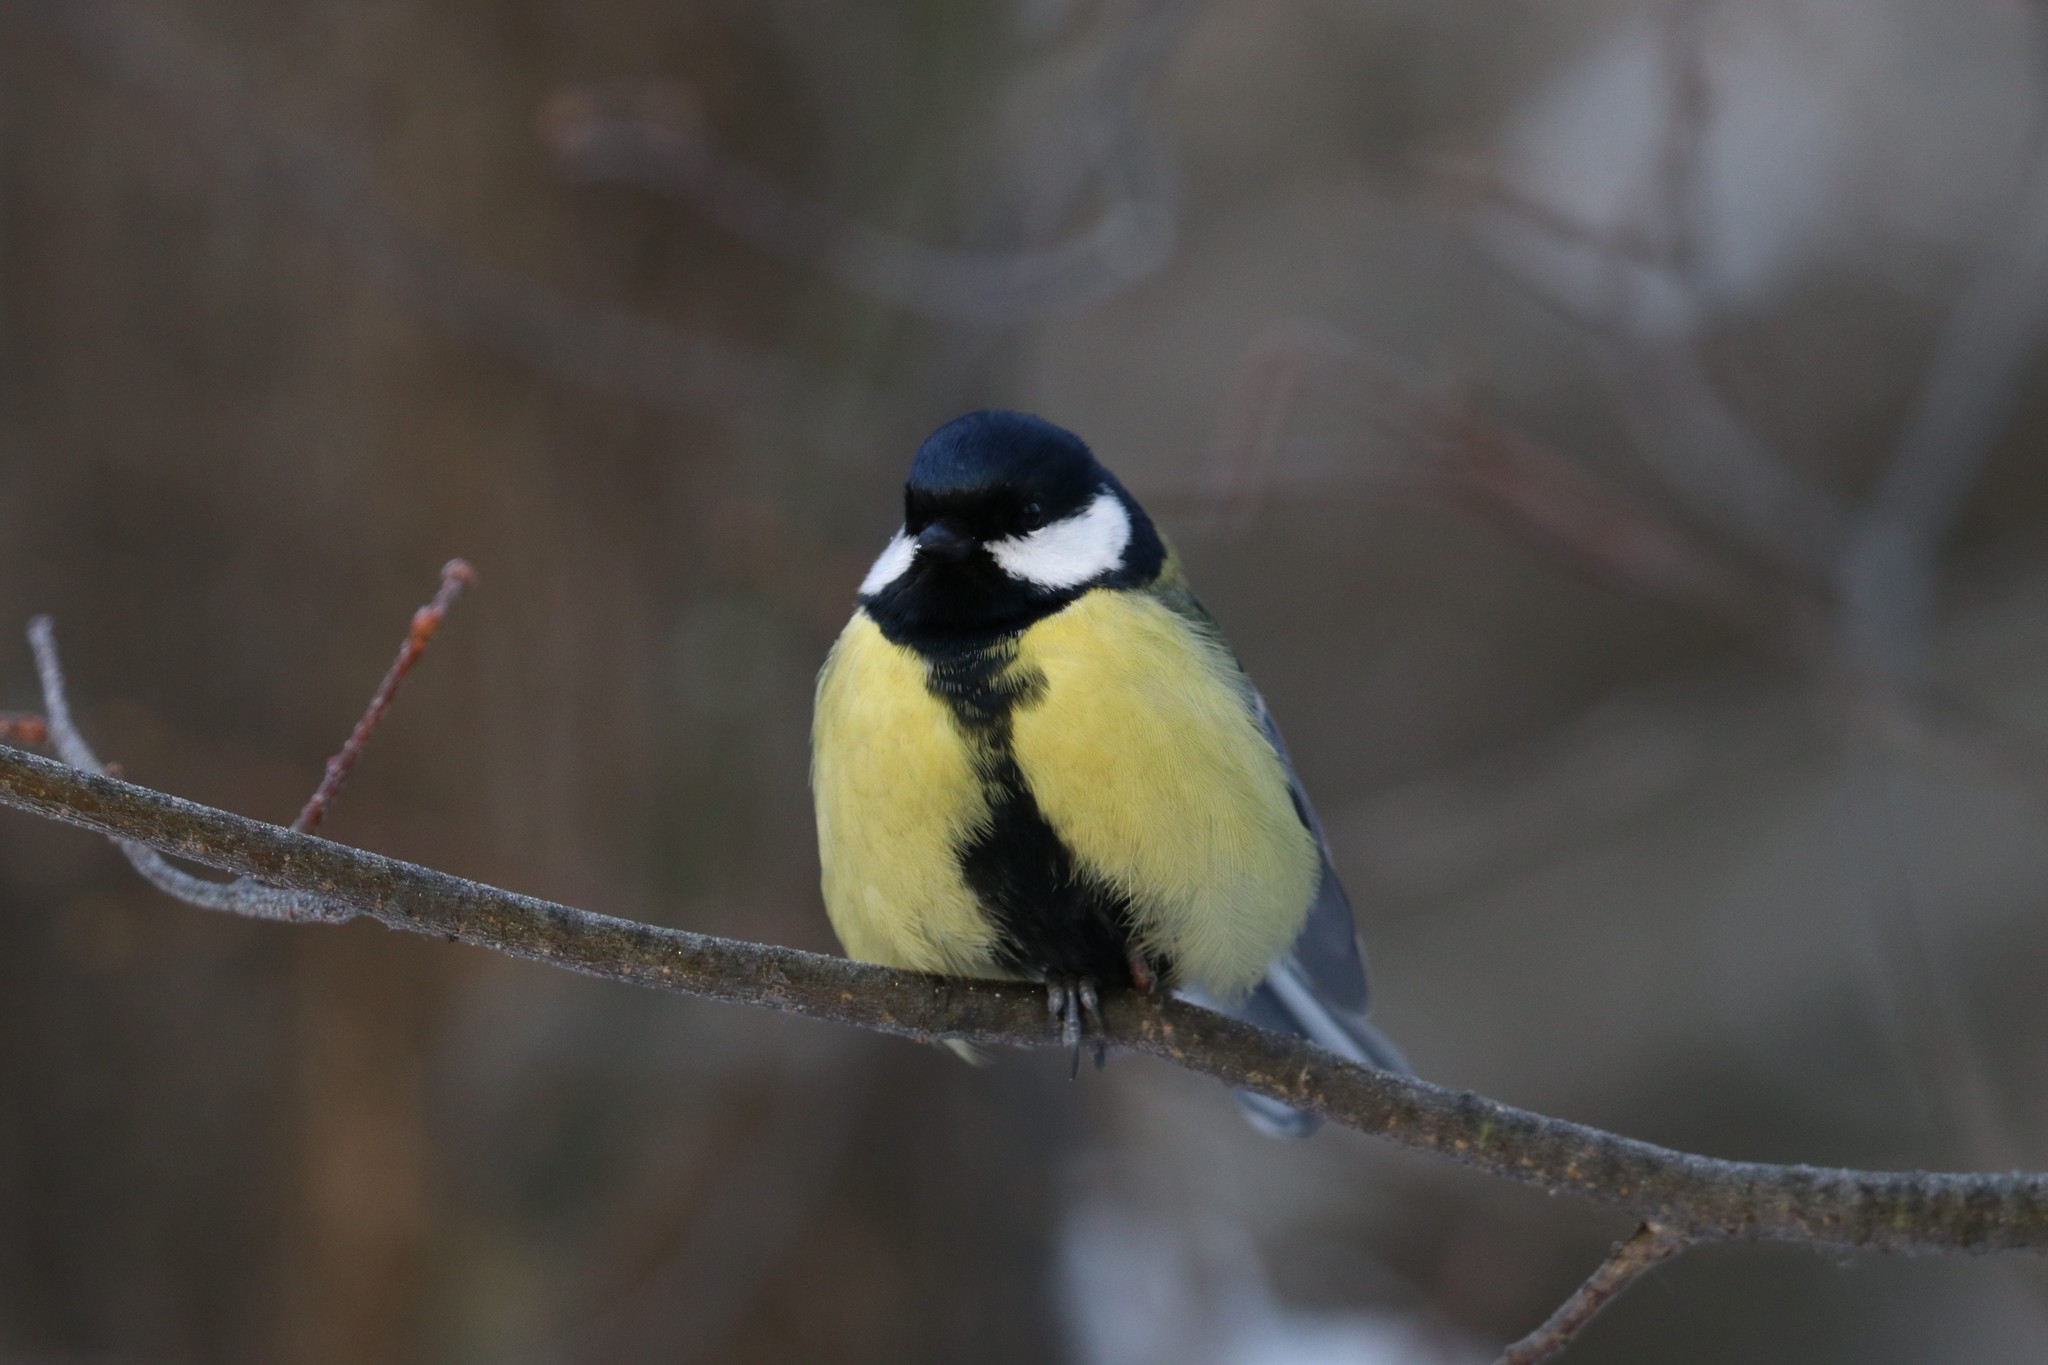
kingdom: Animalia
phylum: Chordata
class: Aves
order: Passeriformes
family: Paridae
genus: Parus
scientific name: Parus major
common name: Great tit
